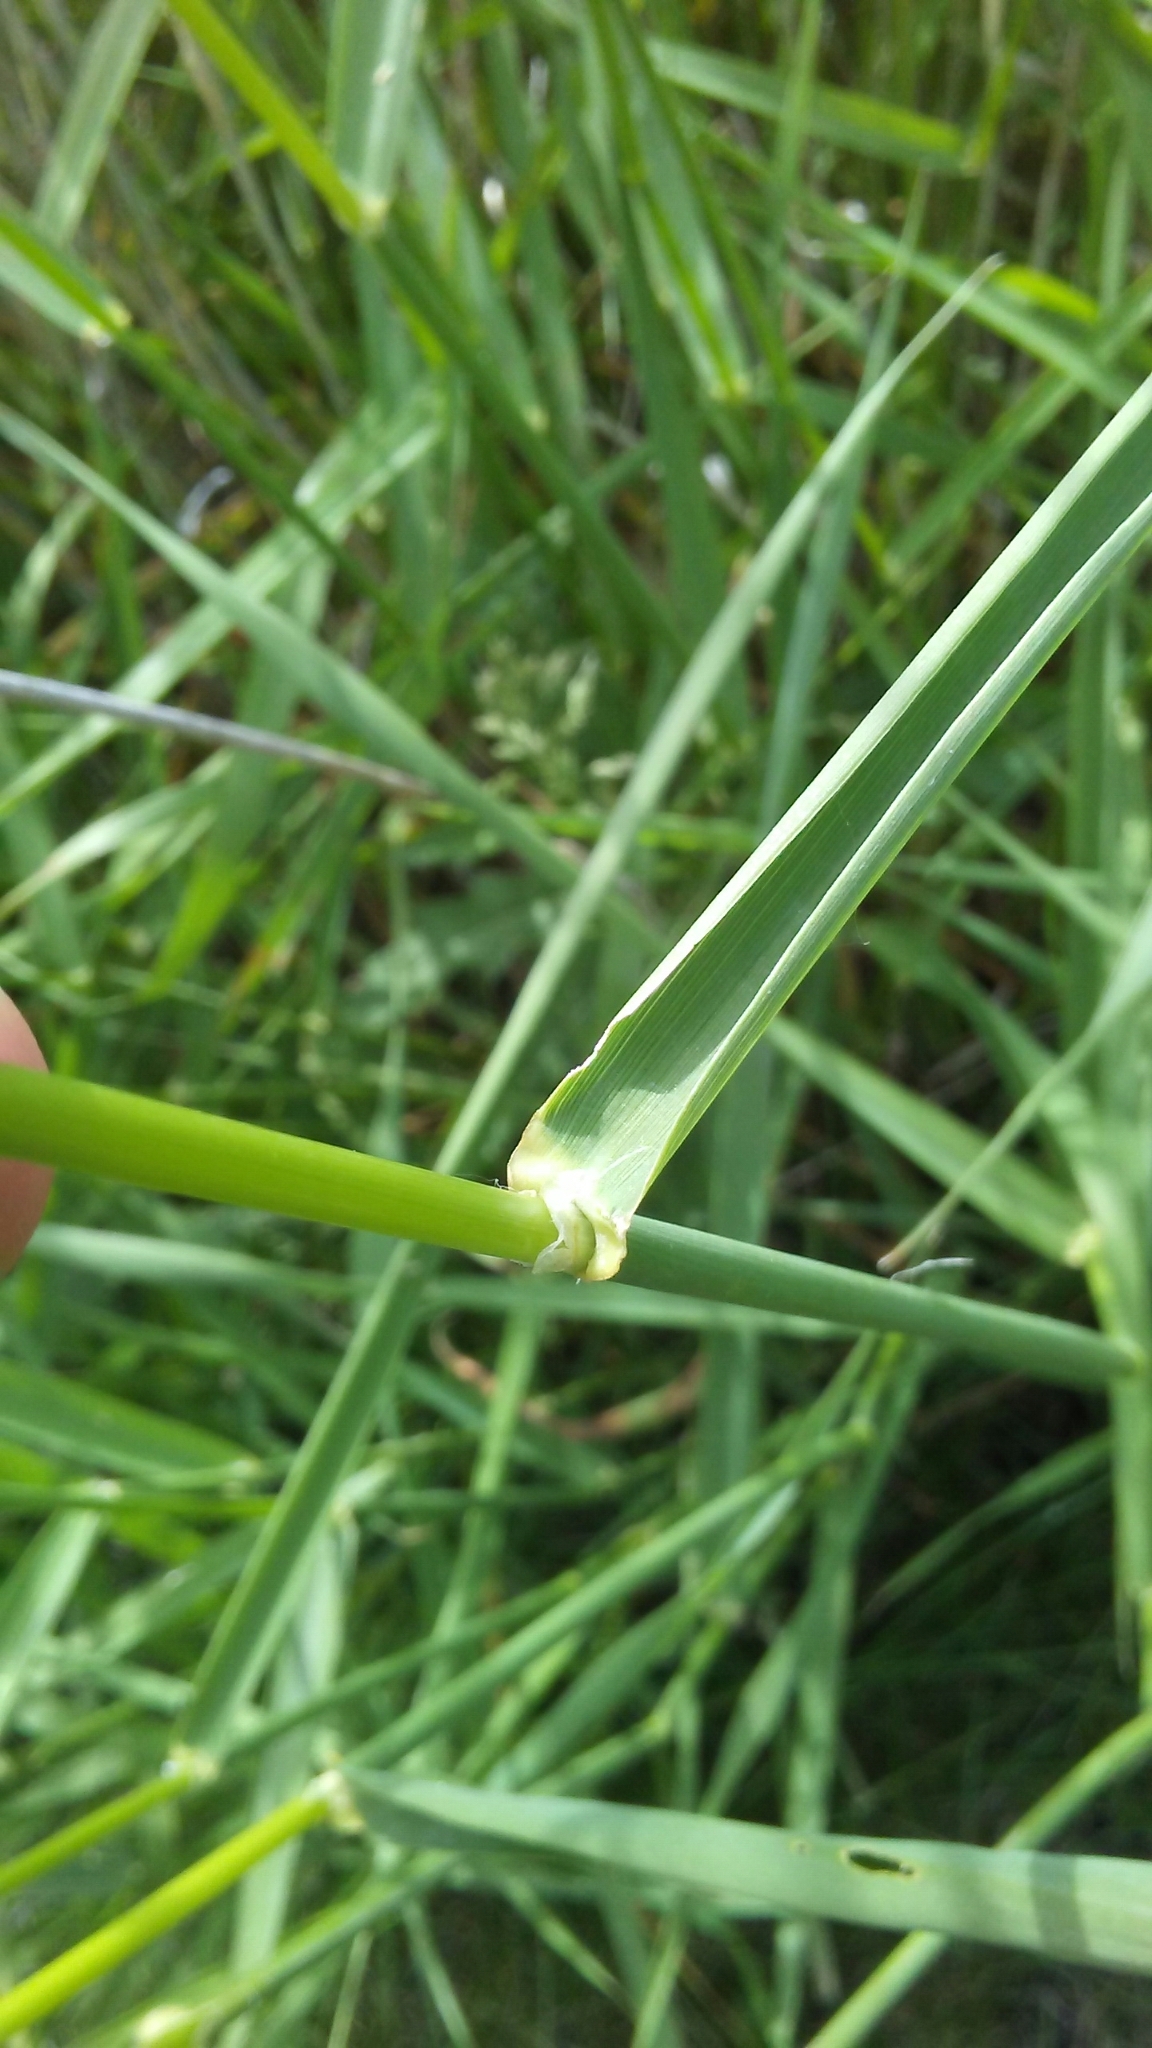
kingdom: Plantae
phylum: Tracheophyta
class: Liliopsida
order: Poales
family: Poaceae
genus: Phalaris
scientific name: Phalaris arundinacea
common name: Reed canary-grass
